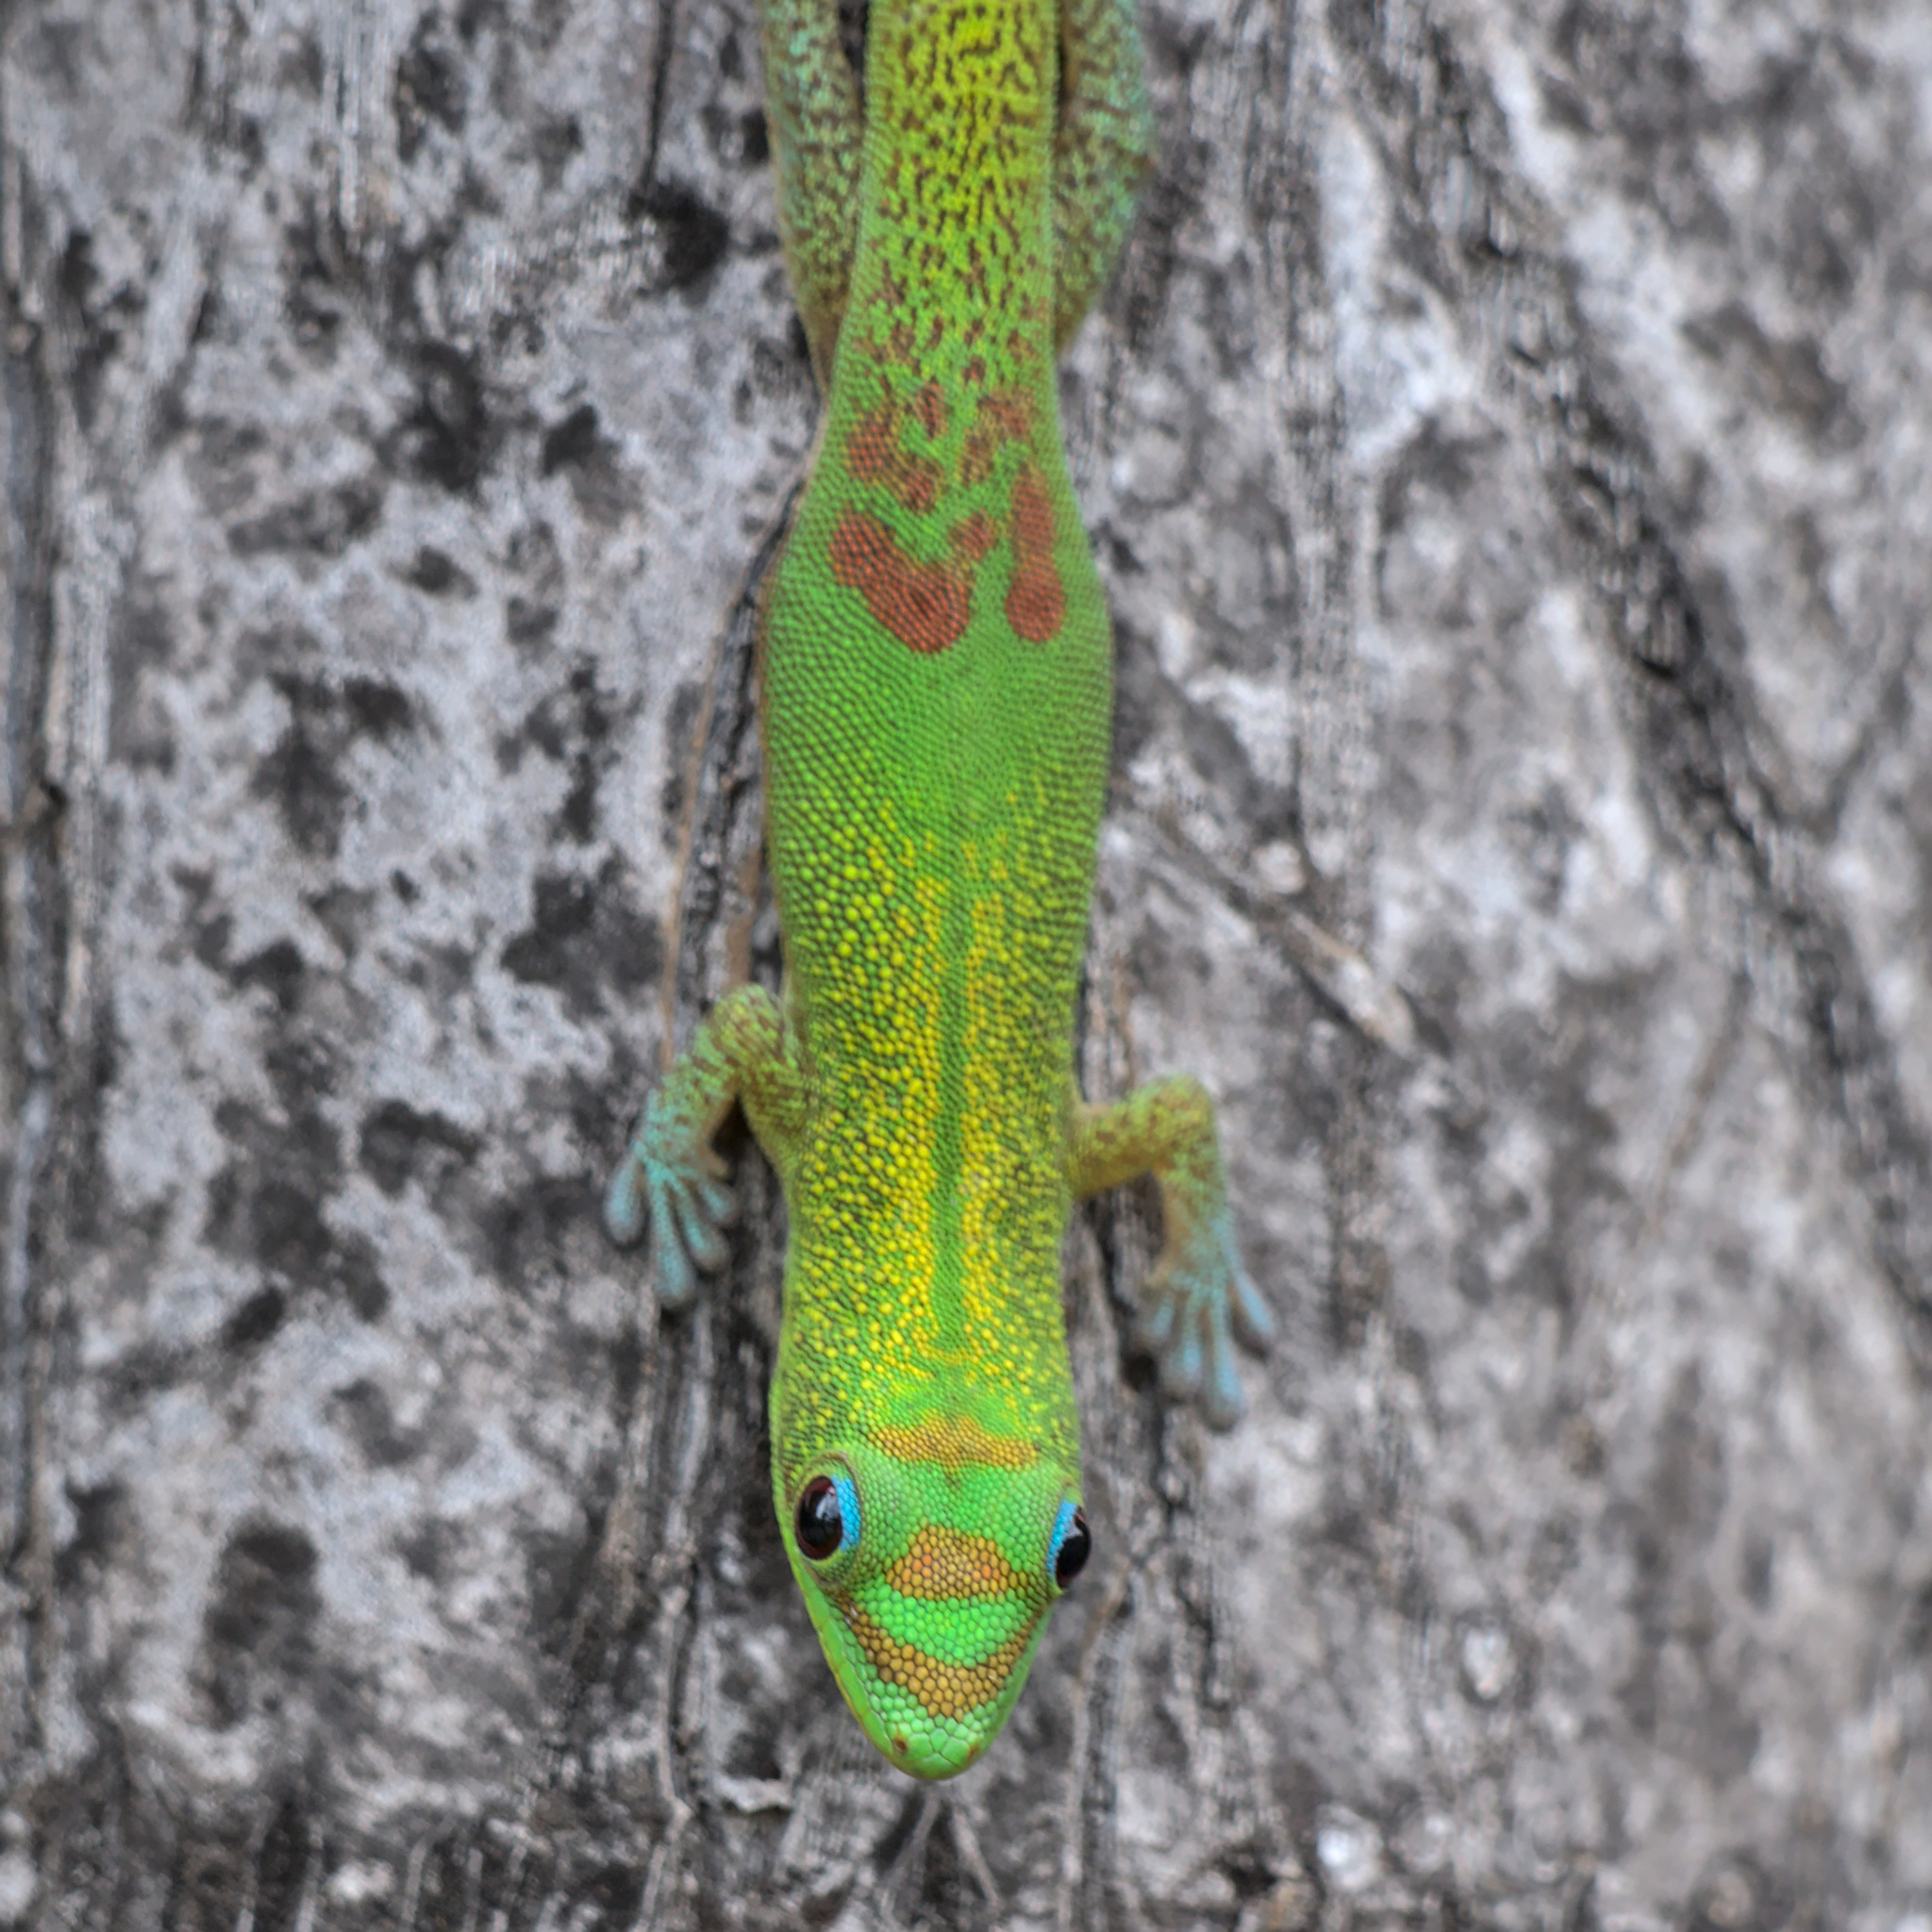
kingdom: Animalia
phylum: Chordata
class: Squamata
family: Gekkonidae
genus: Phelsuma
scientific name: Phelsuma laticauda
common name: Gold dust day gecko
